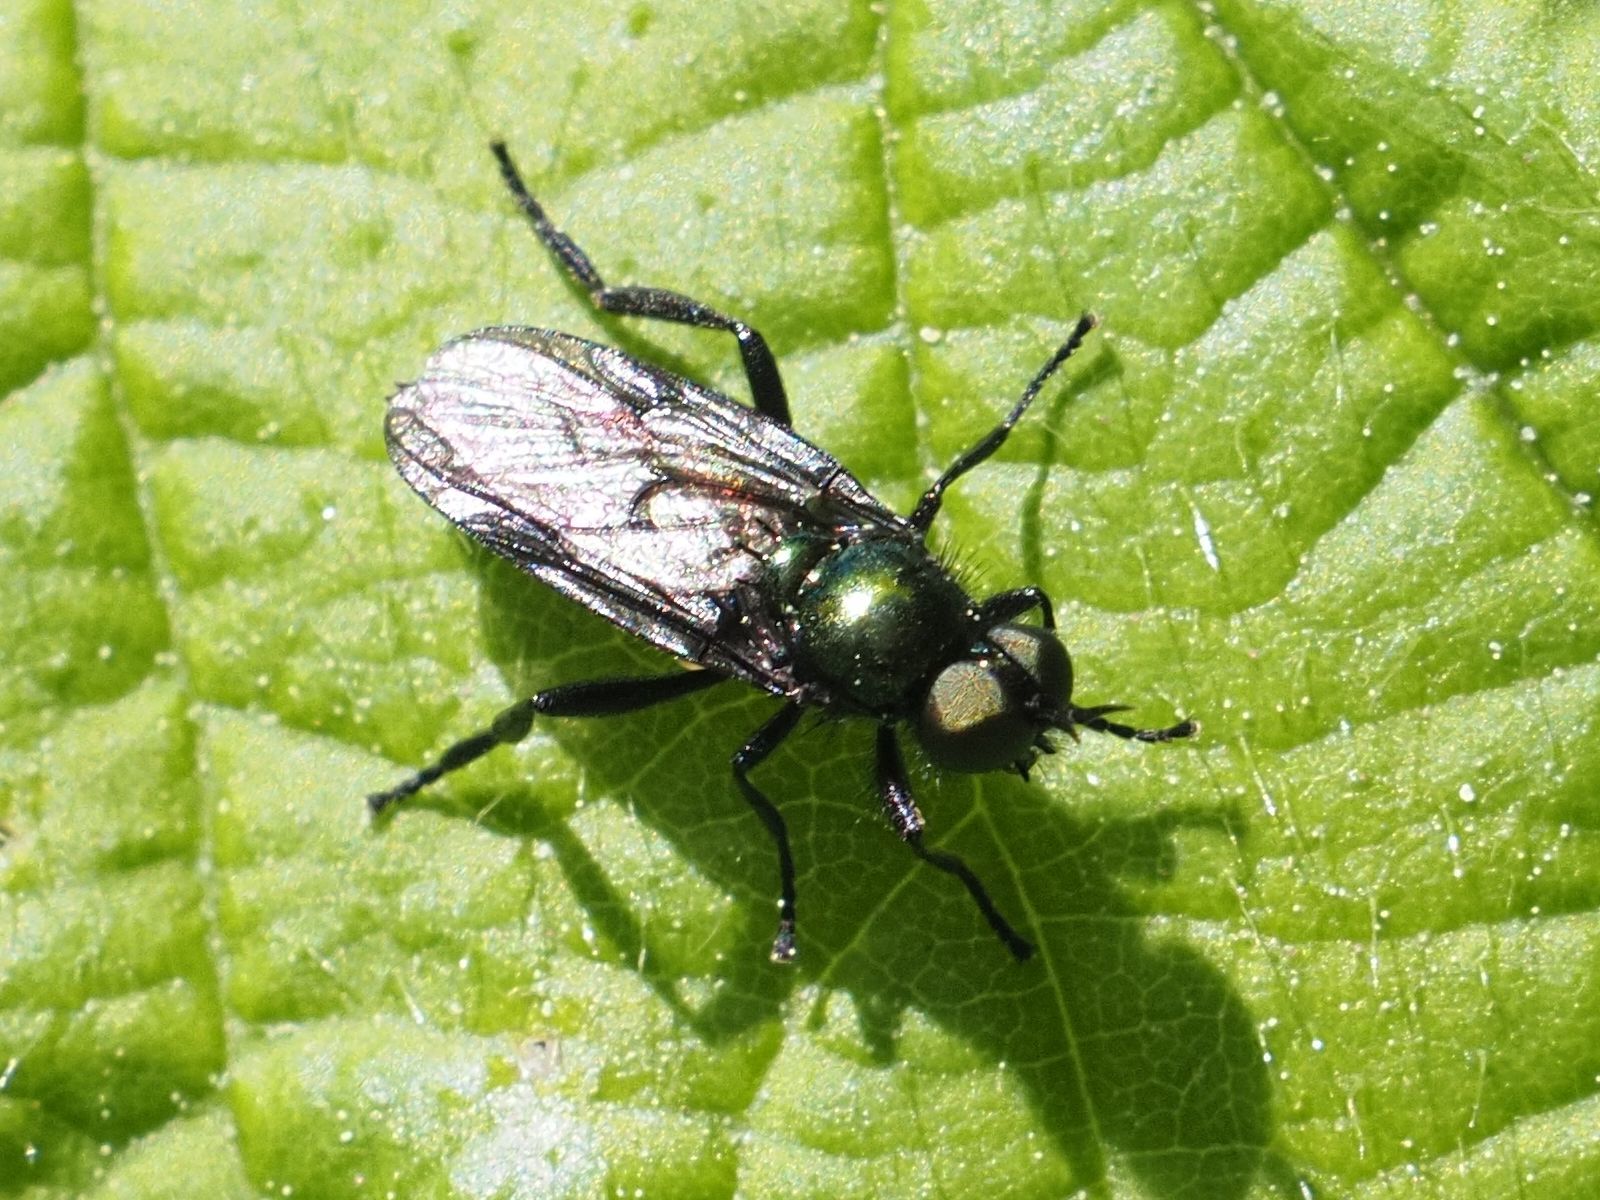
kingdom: Animalia
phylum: Arthropoda
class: Insecta
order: Diptera
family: Stratiomyidae
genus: Actina
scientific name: Actina chalybea
